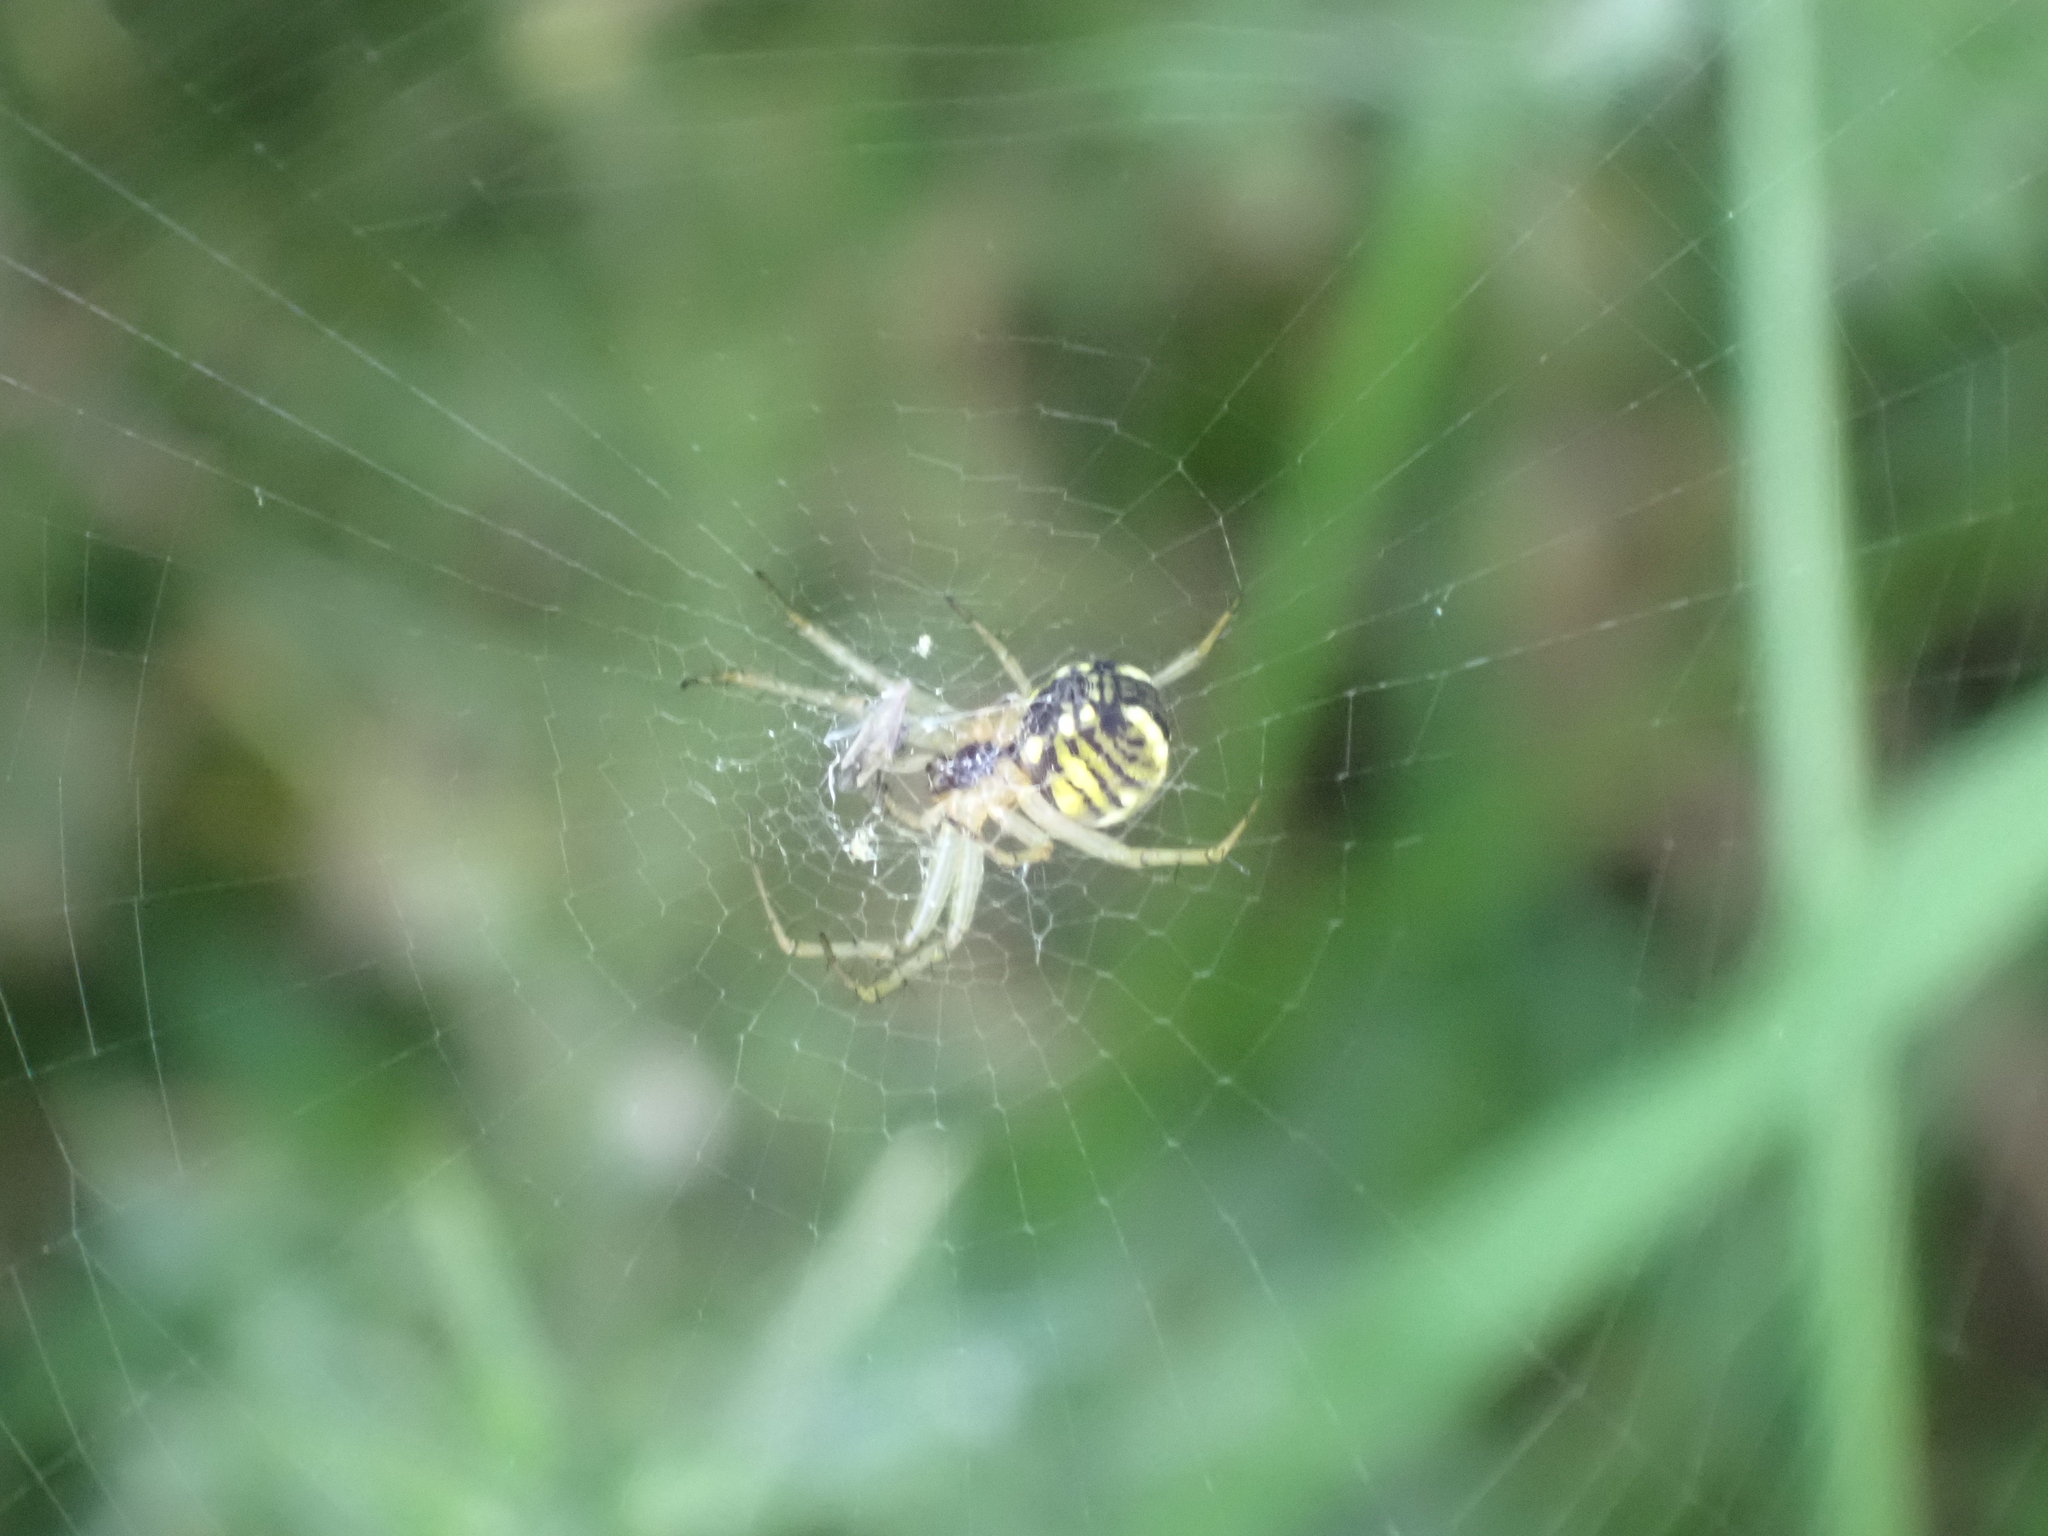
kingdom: Animalia
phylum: Arthropoda
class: Arachnida
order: Araneae
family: Araneidae
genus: Mangora
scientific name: Mangora acalypha
